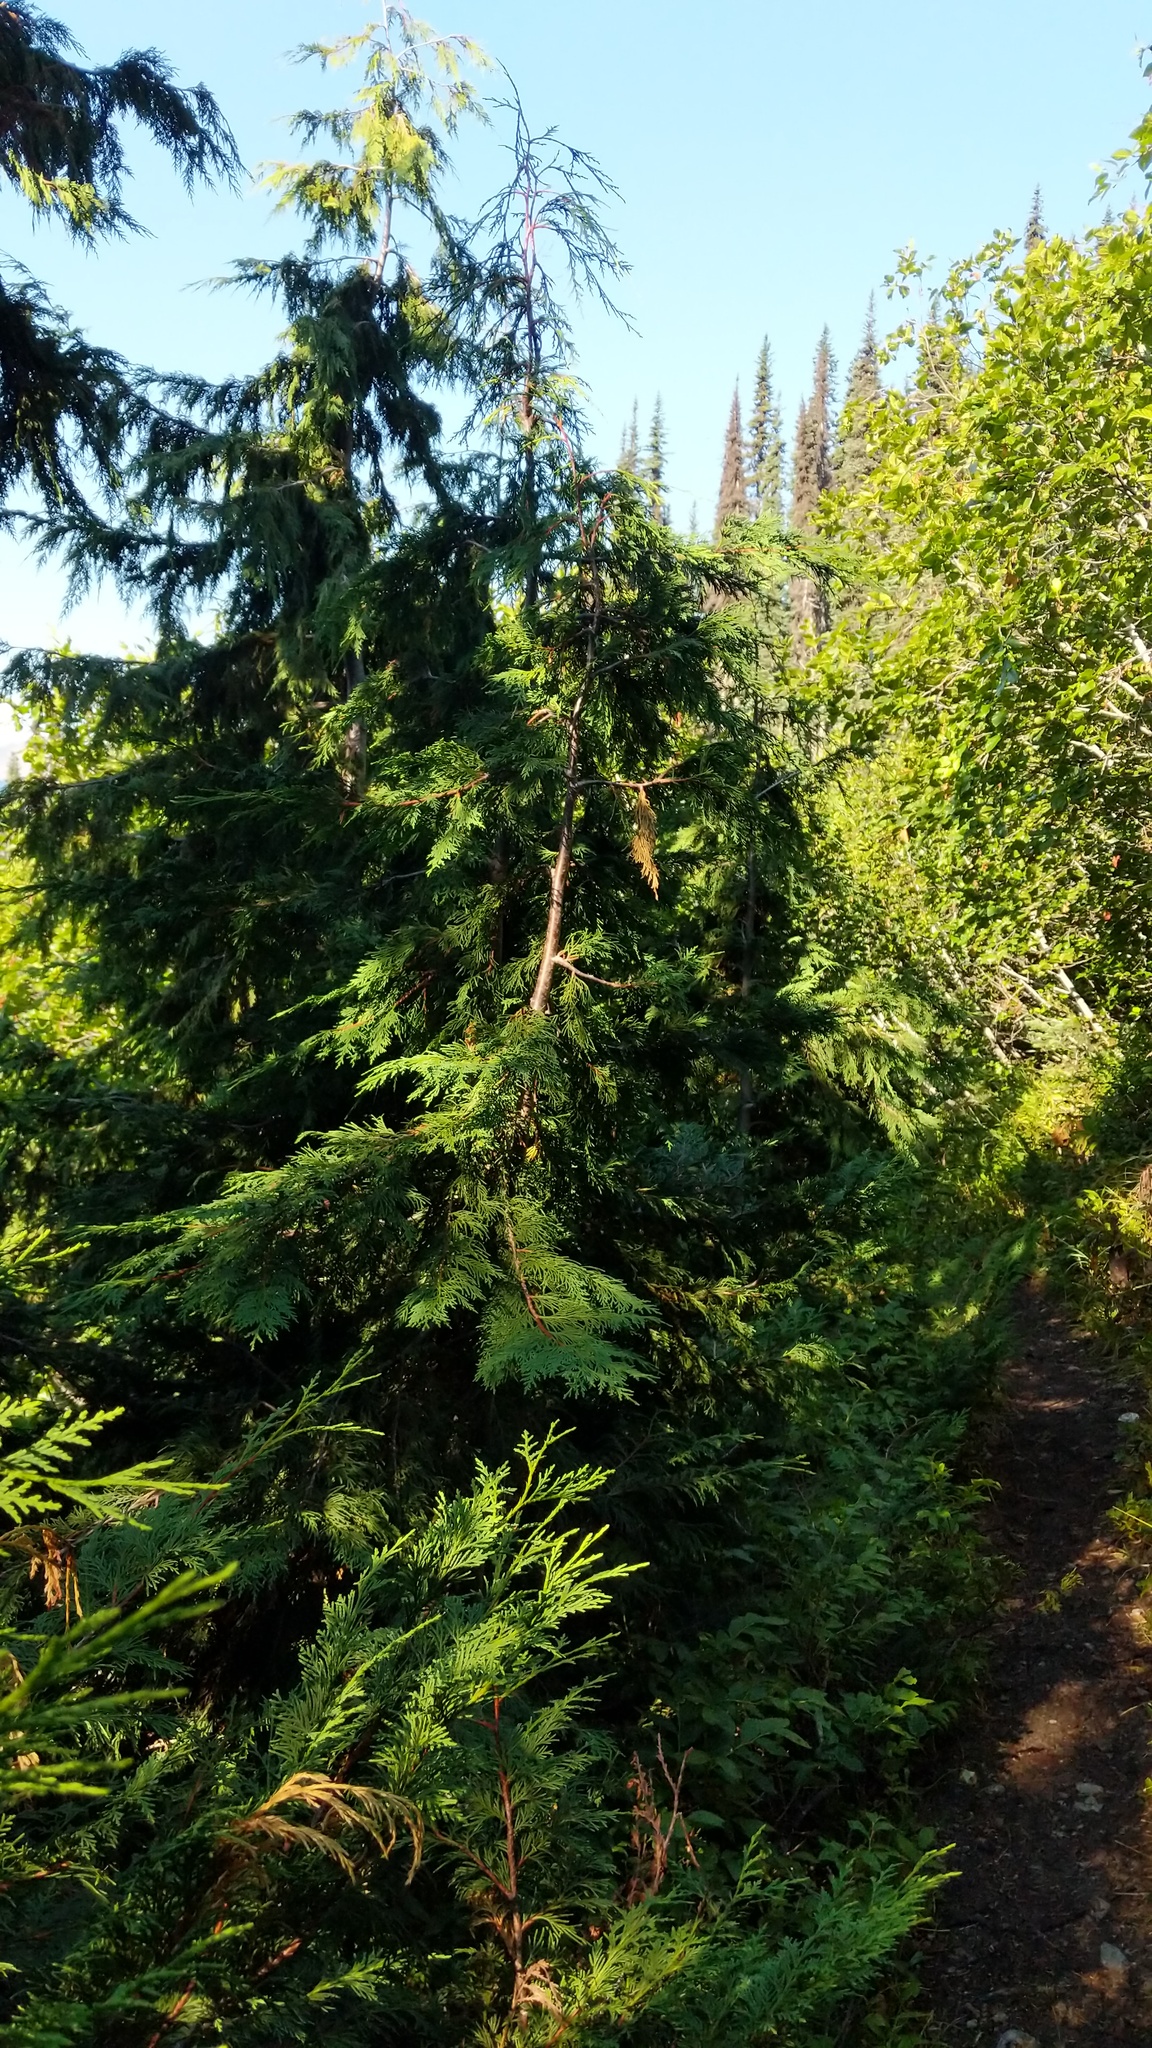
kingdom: Plantae
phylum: Tracheophyta
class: Pinopsida
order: Pinales
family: Cupressaceae
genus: Xanthocyparis
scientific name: Xanthocyparis nootkatensis
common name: Nootka cypress
